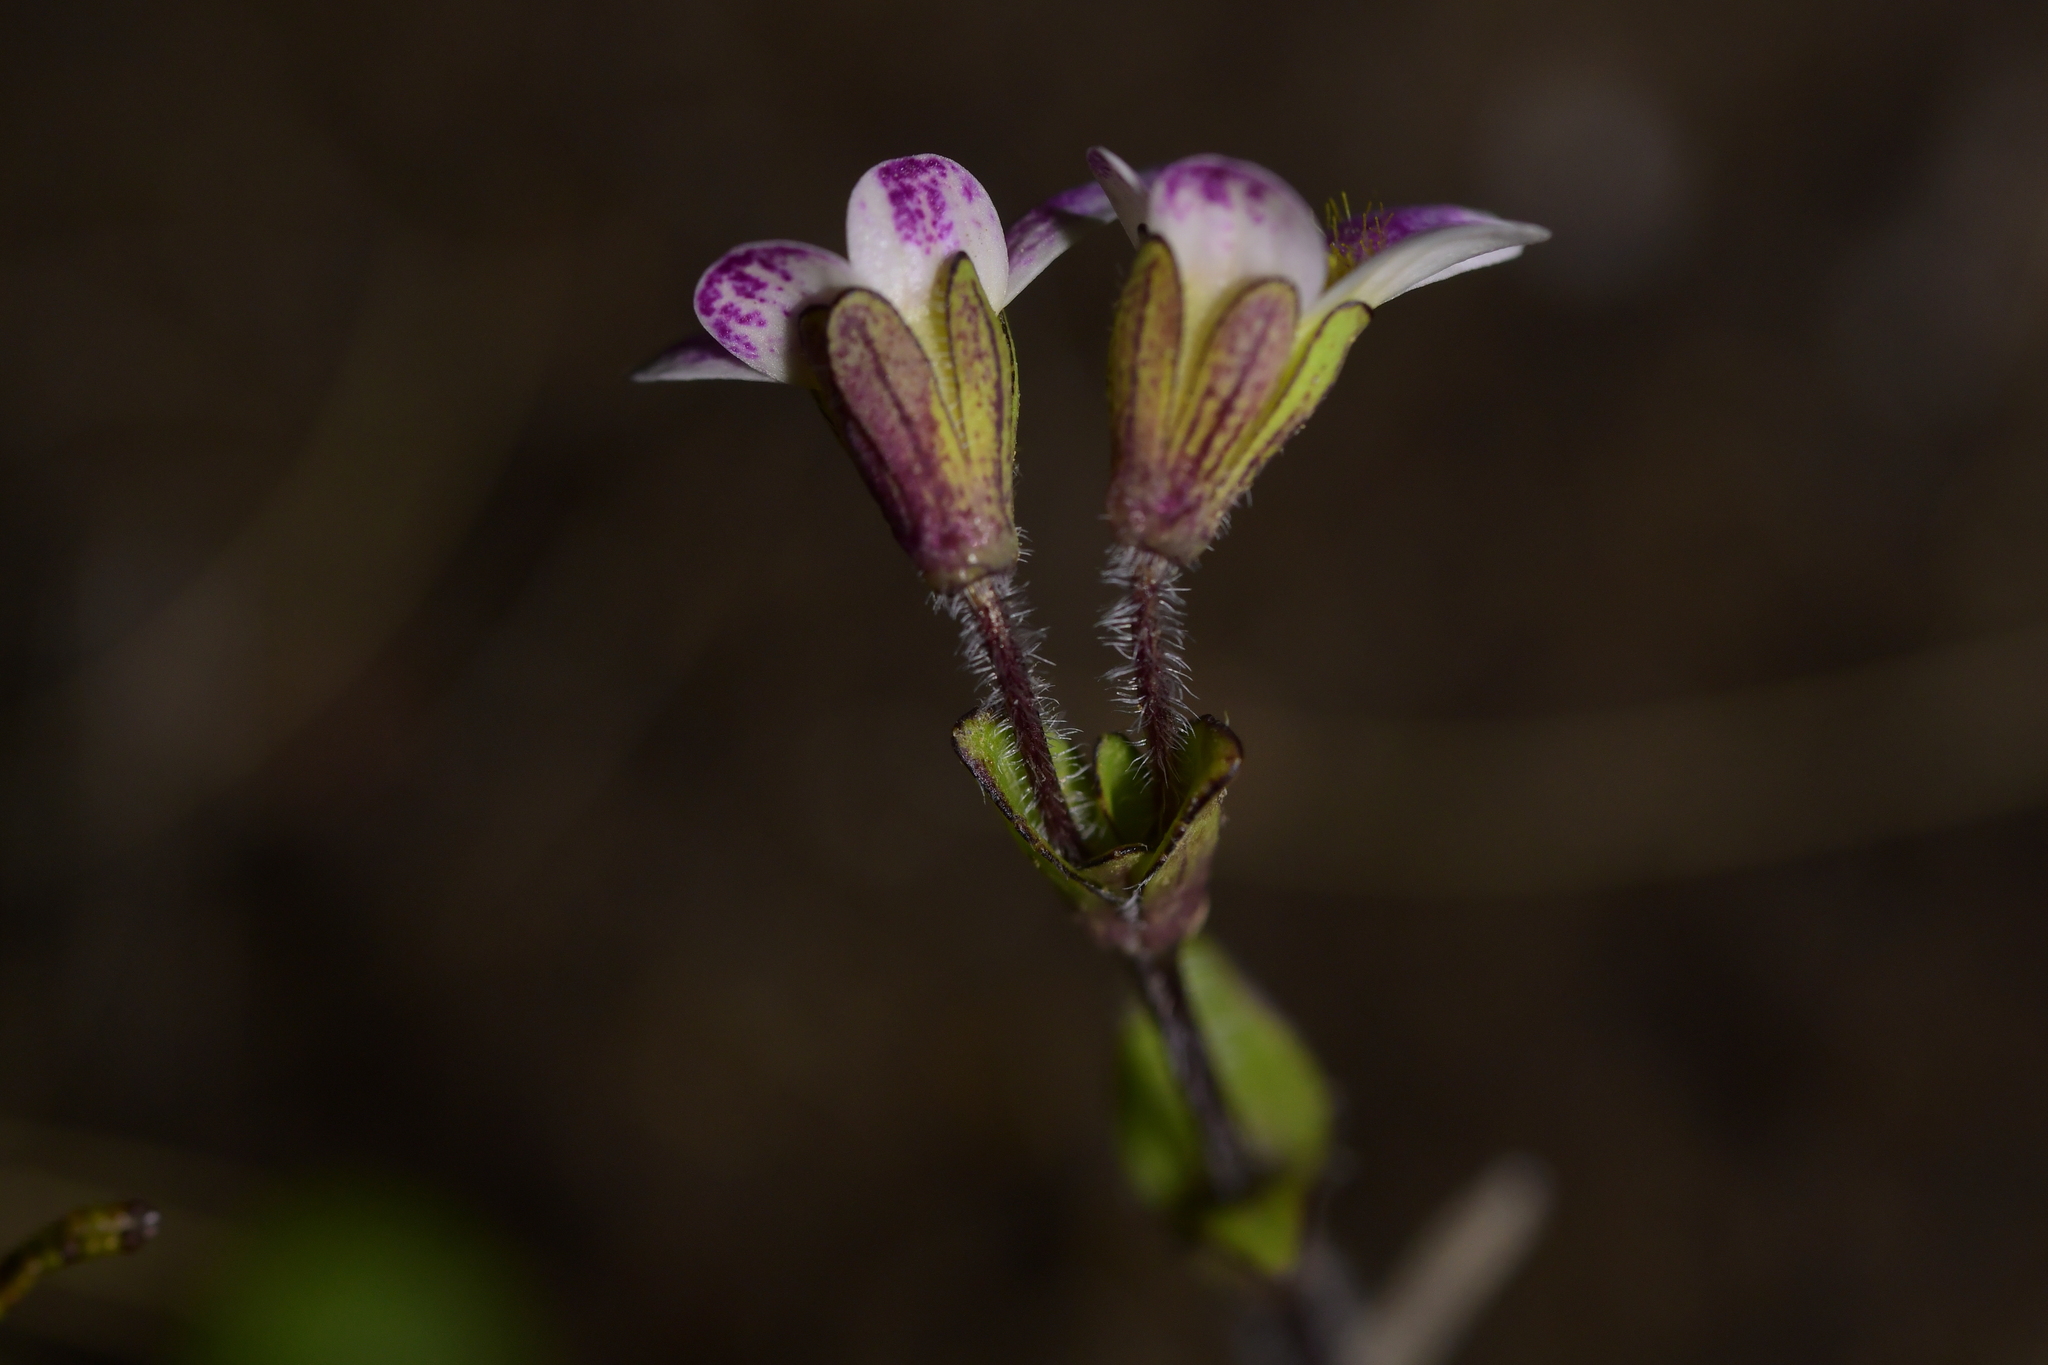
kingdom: Plantae
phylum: Tracheophyta
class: Magnoliopsida
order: Lamiales
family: Plantaginaceae
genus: Ourisia
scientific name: Ourisia vulcanica
